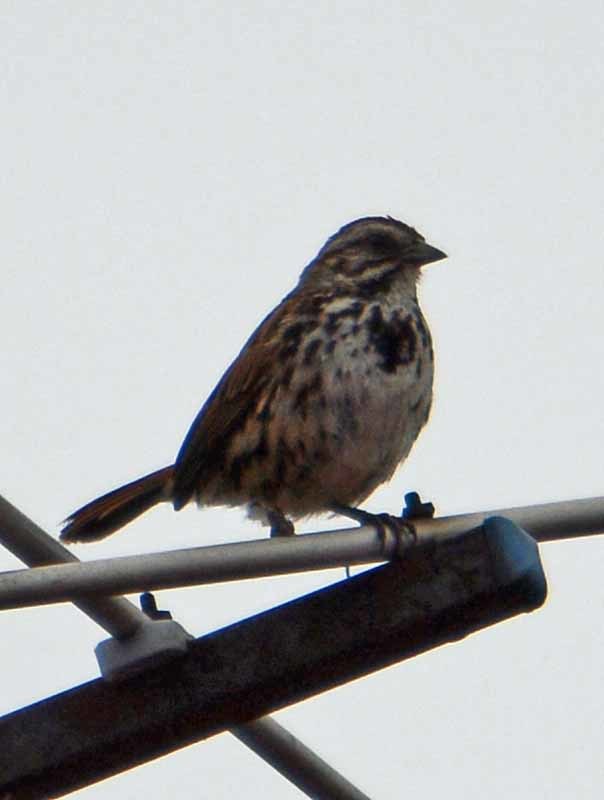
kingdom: Animalia
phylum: Chordata
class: Aves
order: Passeriformes
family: Passerellidae
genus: Melospiza
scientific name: Melospiza melodia
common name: Song sparrow
